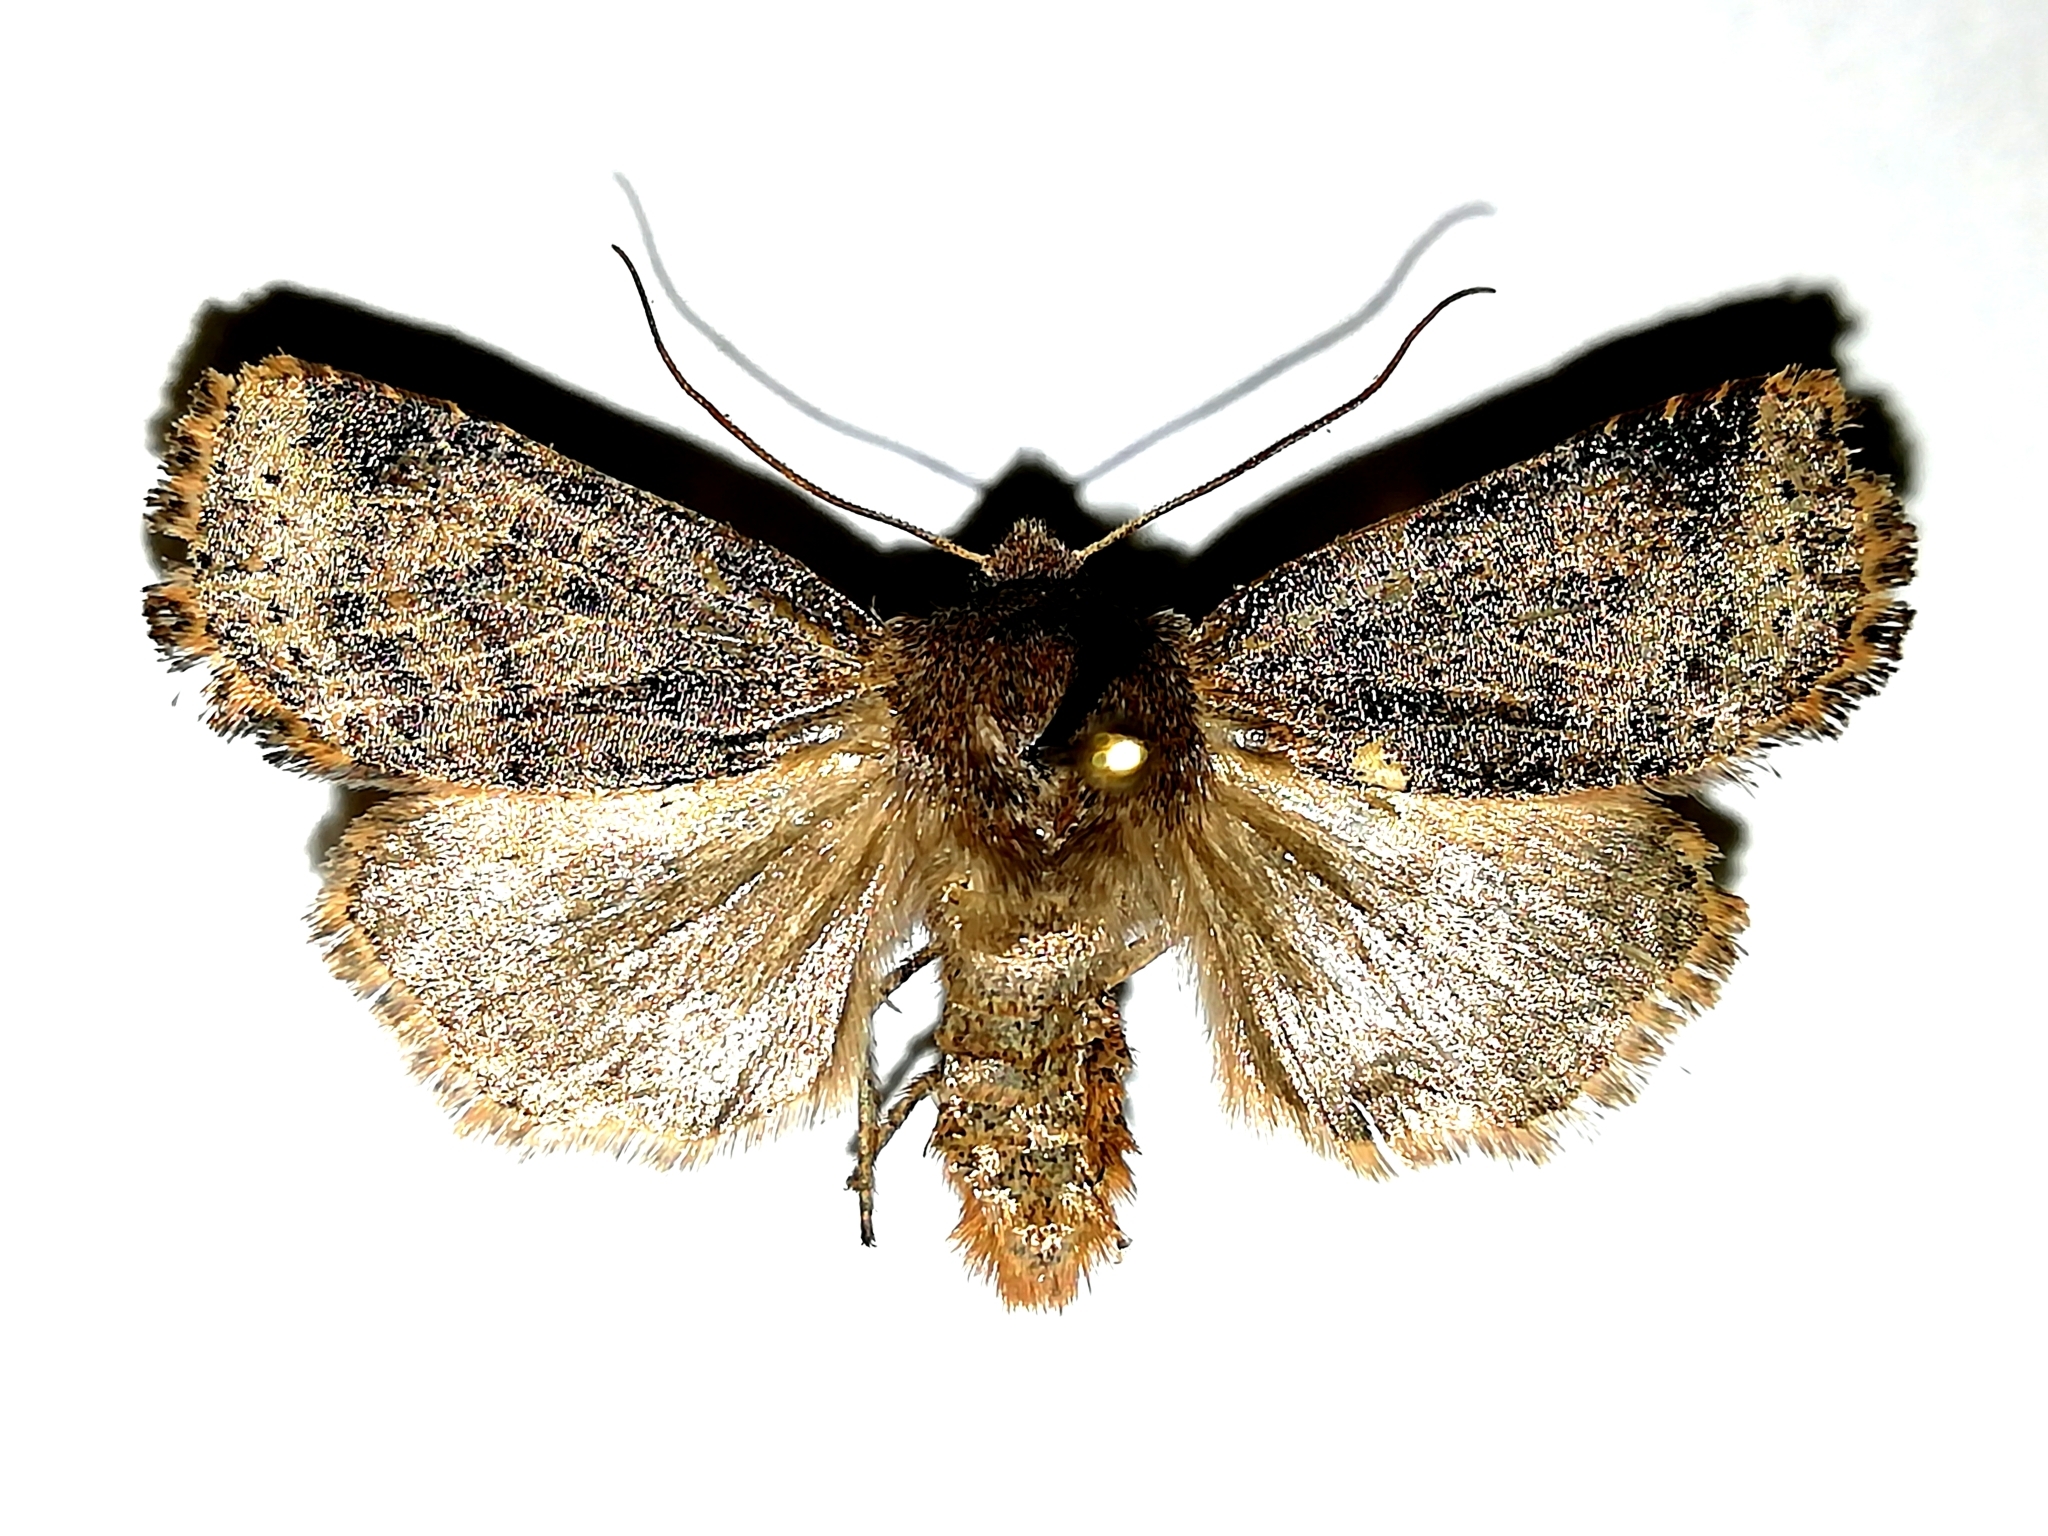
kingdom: Animalia
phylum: Arthropoda
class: Insecta
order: Lepidoptera
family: Noctuidae
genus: Conistra
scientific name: Conistra vaccinii
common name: Chestnut
